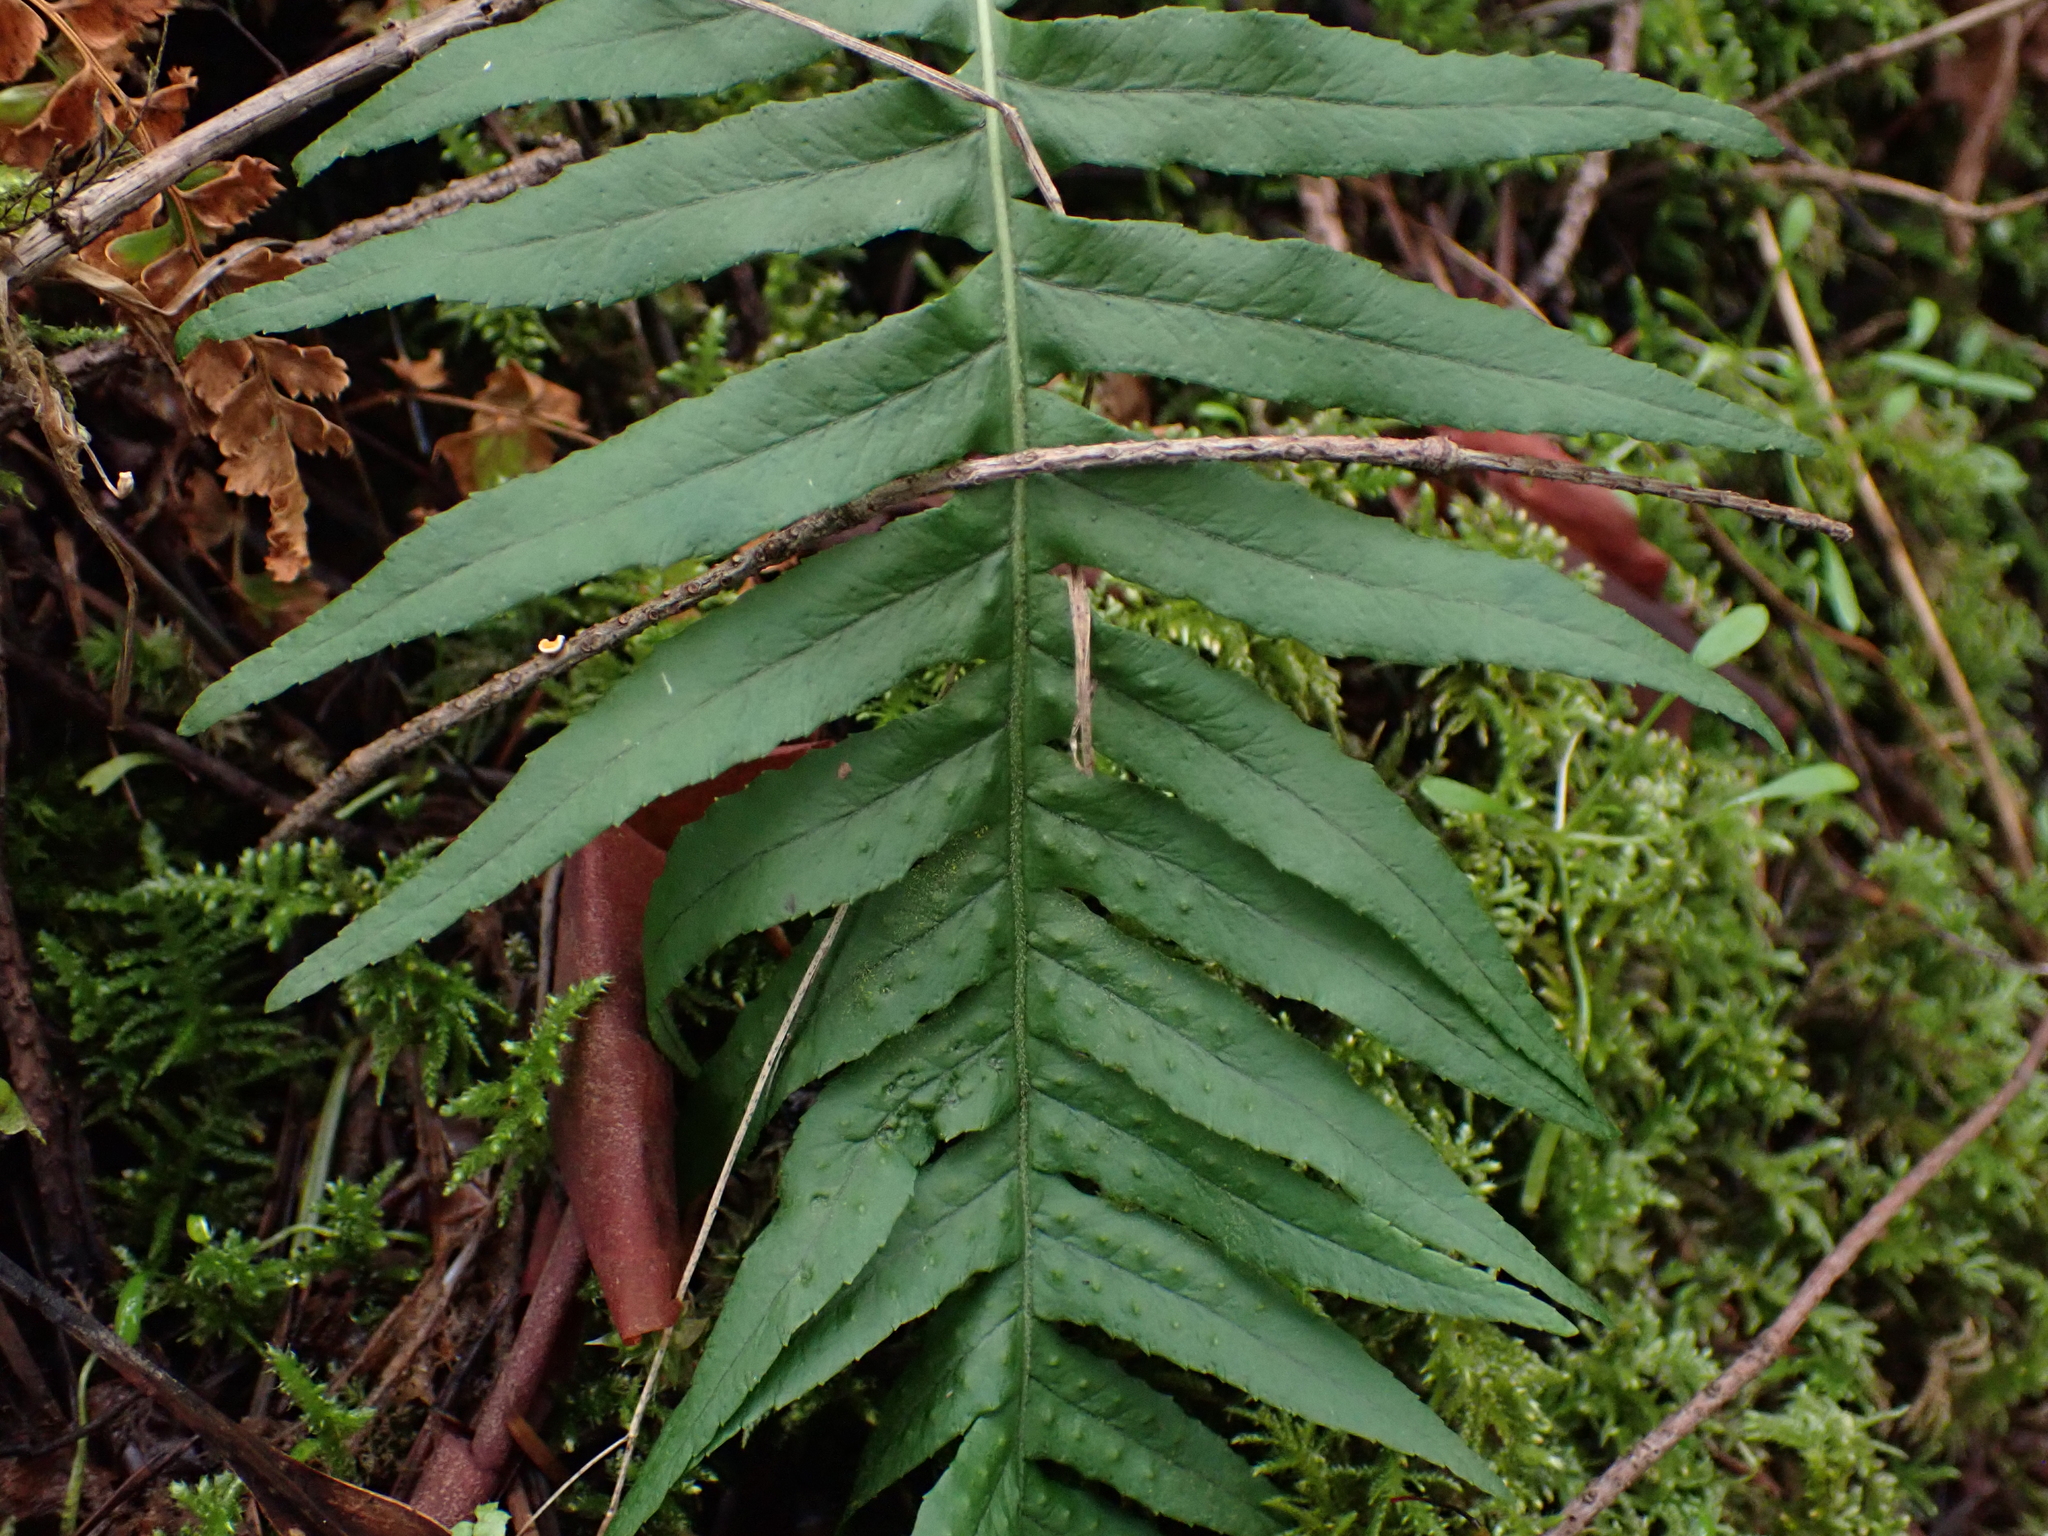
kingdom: Plantae
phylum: Tracheophyta
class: Polypodiopsida
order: Polypodiales
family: Polypodiaceae
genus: Polypodium
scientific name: Polypodium glycyrrhiza
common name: Licorice fern
